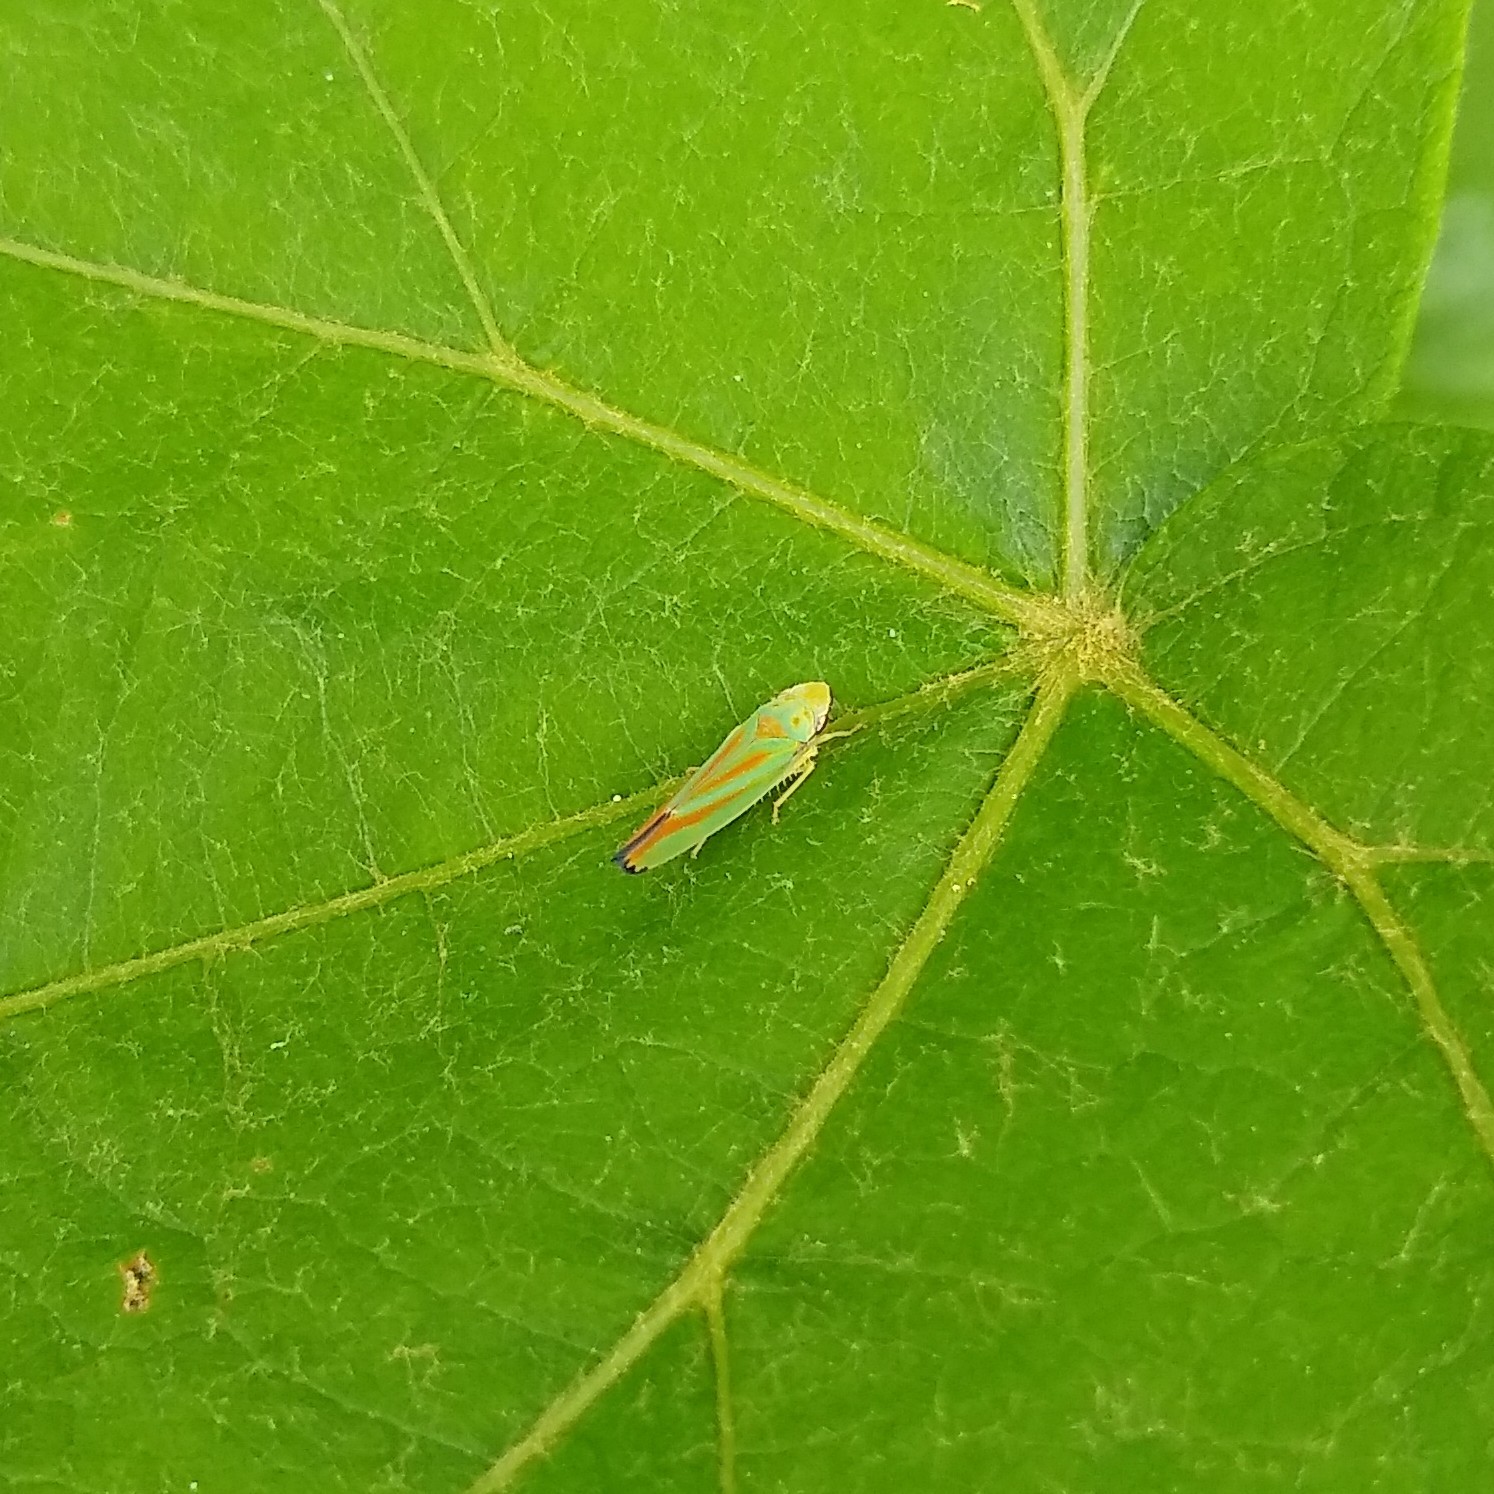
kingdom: Animalia
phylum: Arthropoda
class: Insecta
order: Hemiptera
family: Cicadellidae
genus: Graphocephala
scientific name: Graphocephala fennahi
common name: Rhododendron leafhopper
